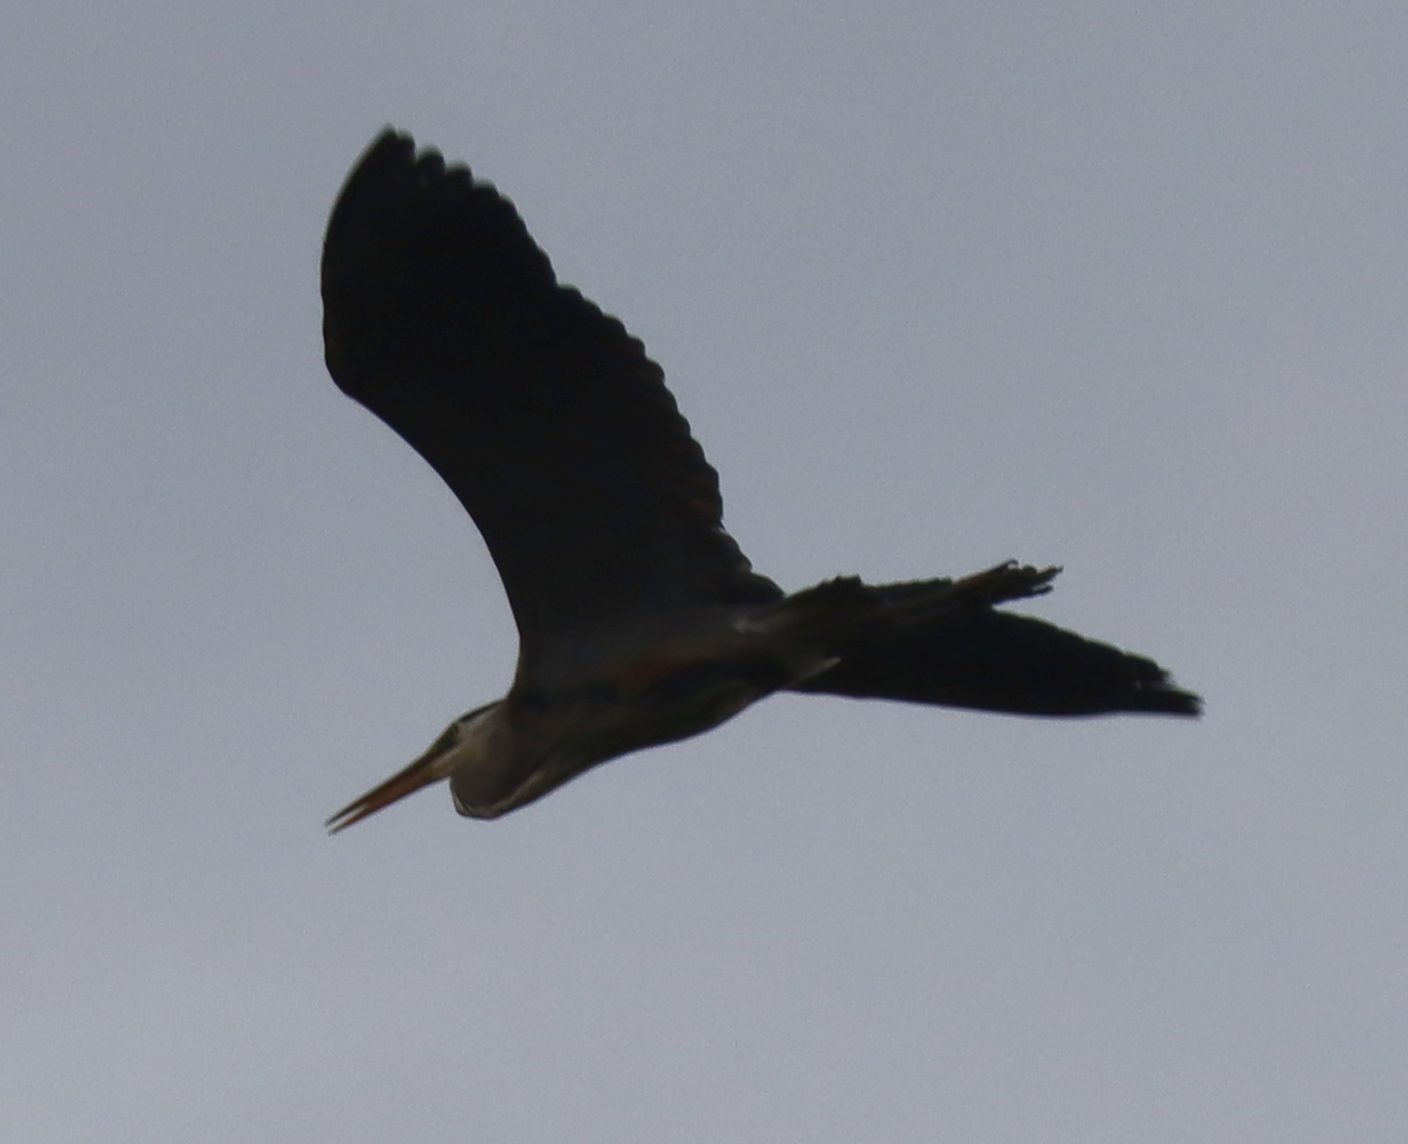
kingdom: Animalia
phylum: Chordata
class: Aves
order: Pelecaniformes
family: Ardeidae
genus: Ardea
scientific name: Ardea herodias
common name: Great blue heron
